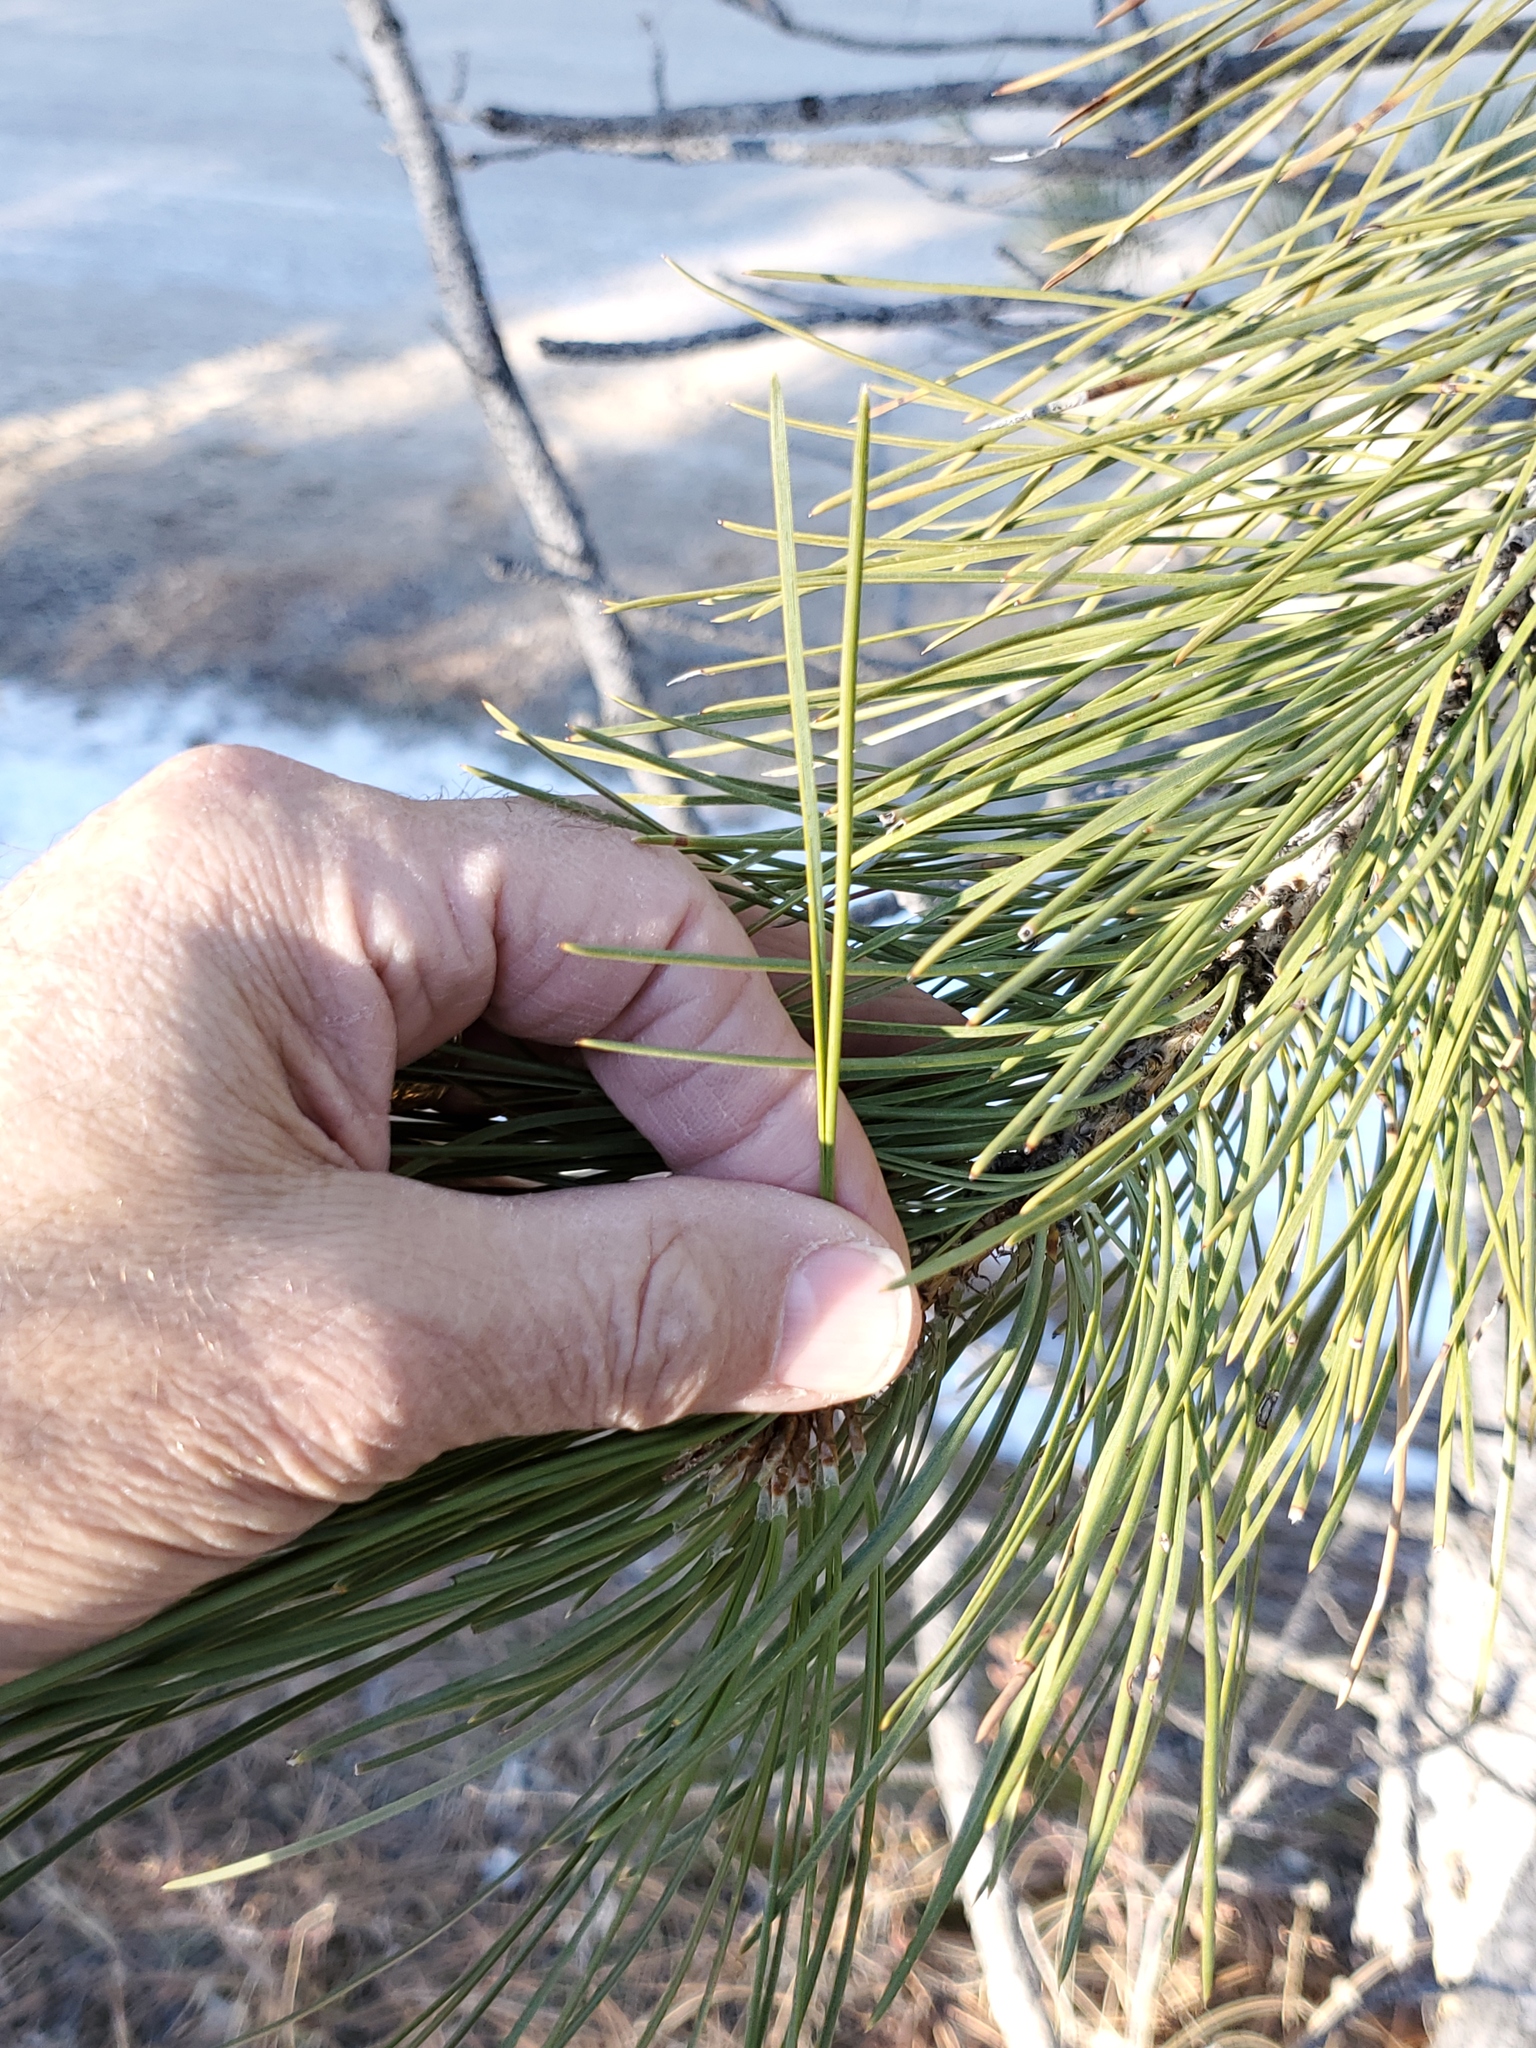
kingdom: Plantae
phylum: Tracheophyta
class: Pinopsida
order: Pinales
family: Pinaceae
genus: Pinus
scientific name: Pinus ponderosa
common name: Western yellow-pine
